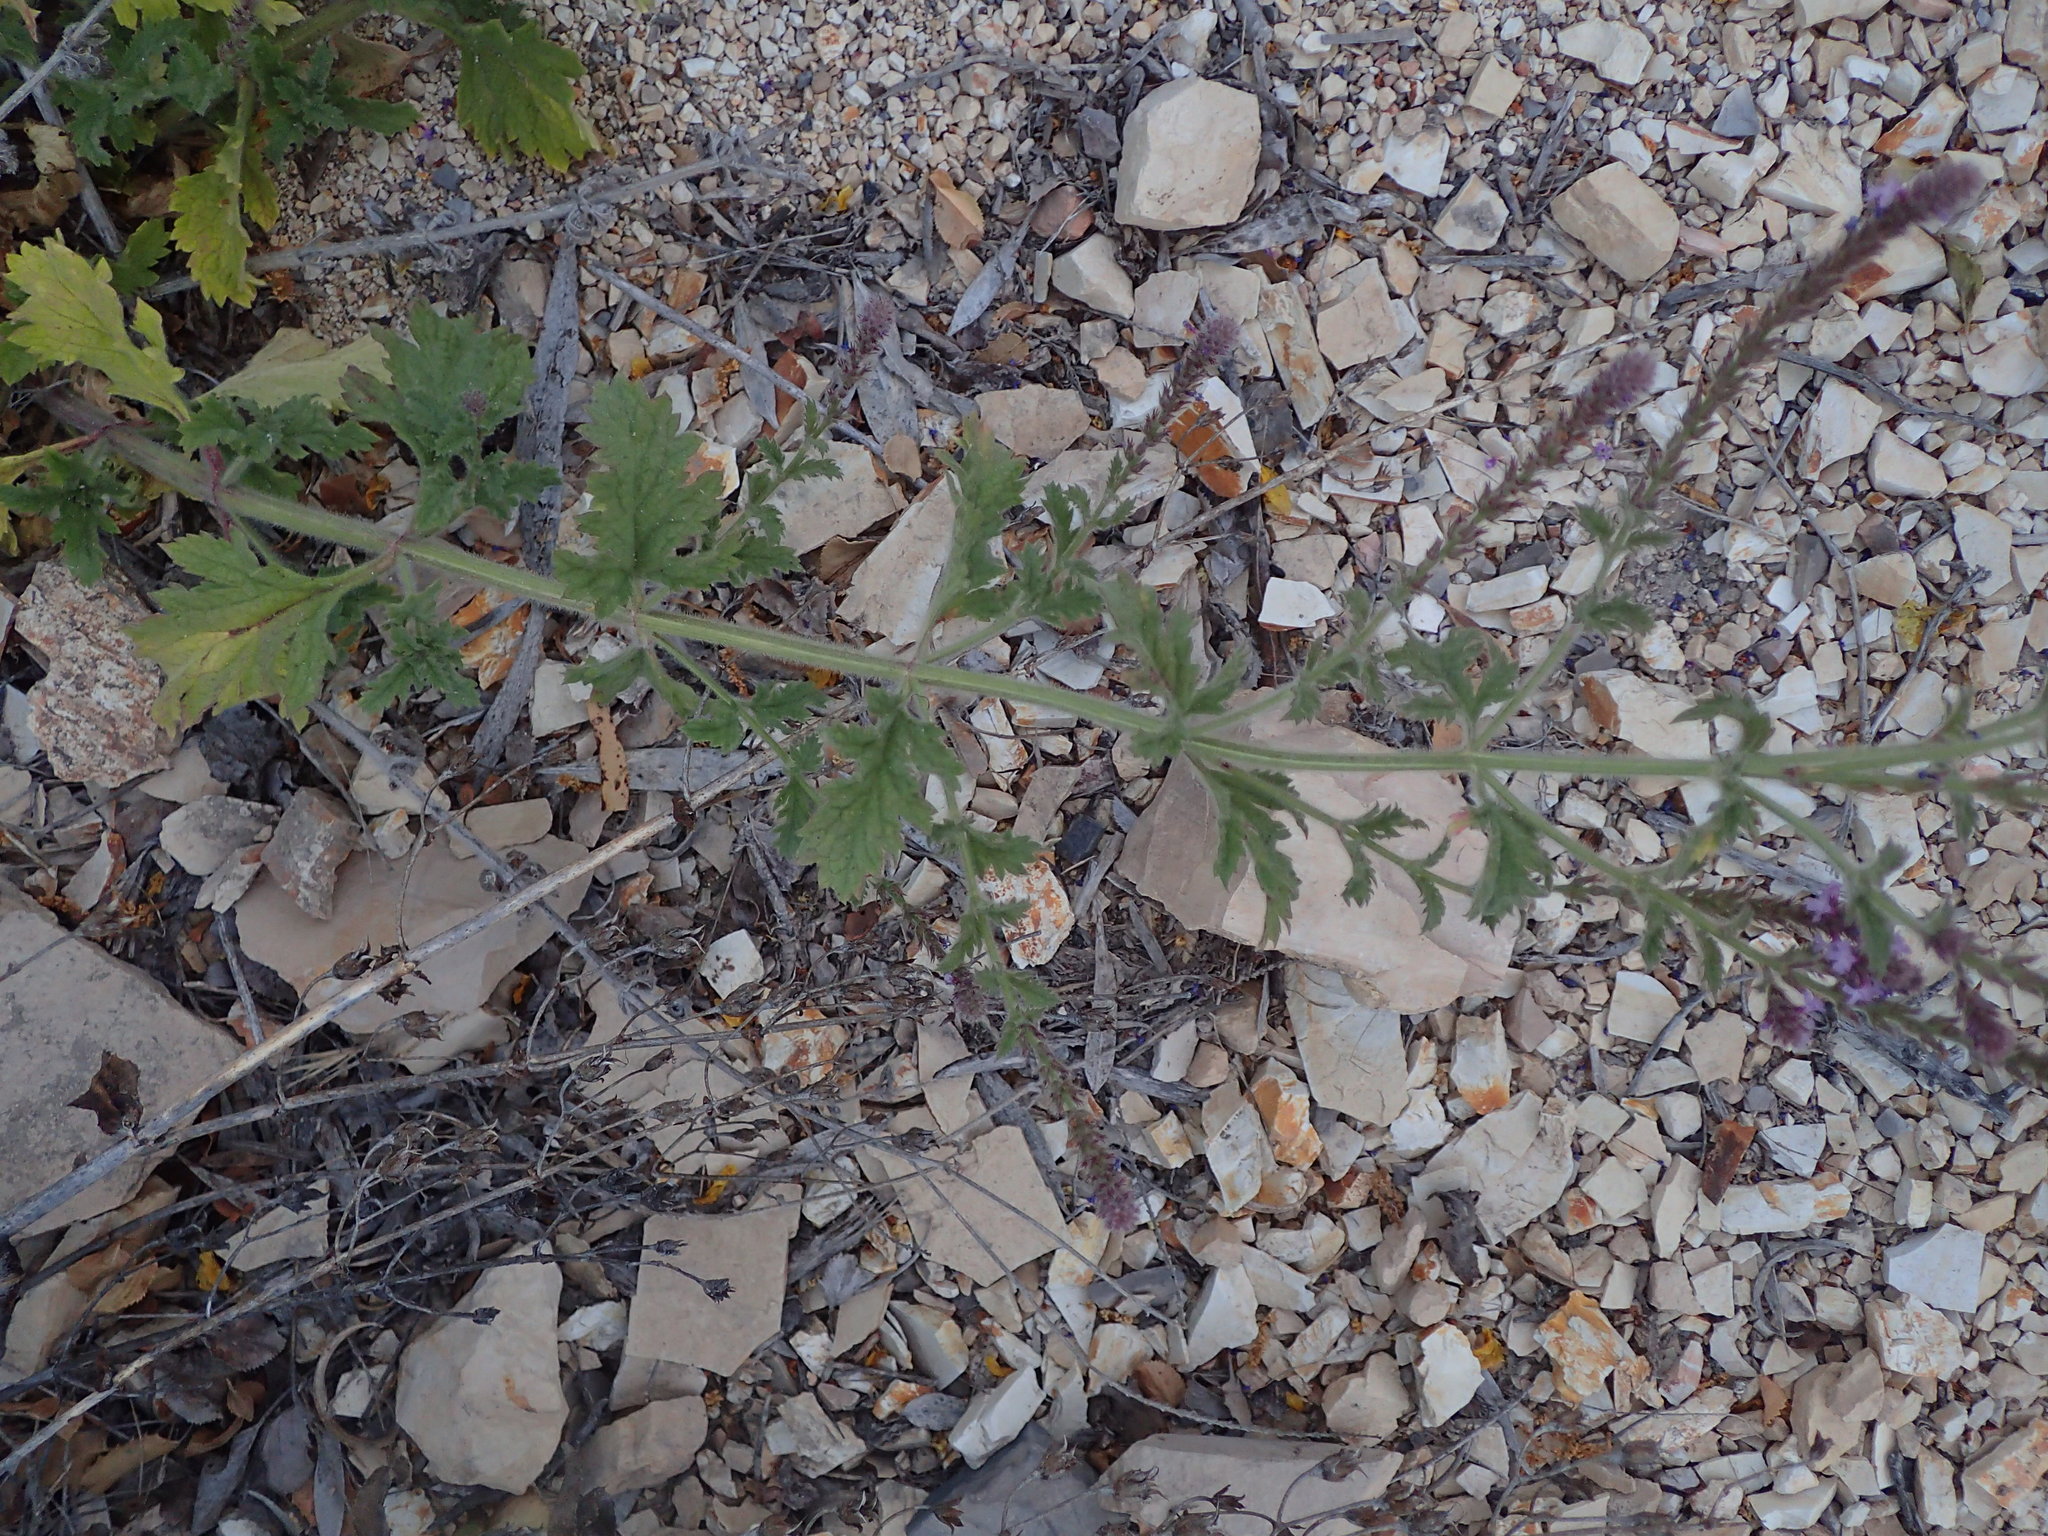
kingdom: Plantae
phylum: Tracheophyta
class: Magnoliopsida
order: Lamiales
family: Verbenaceae
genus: Verbena
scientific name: Verbena lasiostachys
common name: Vervain
